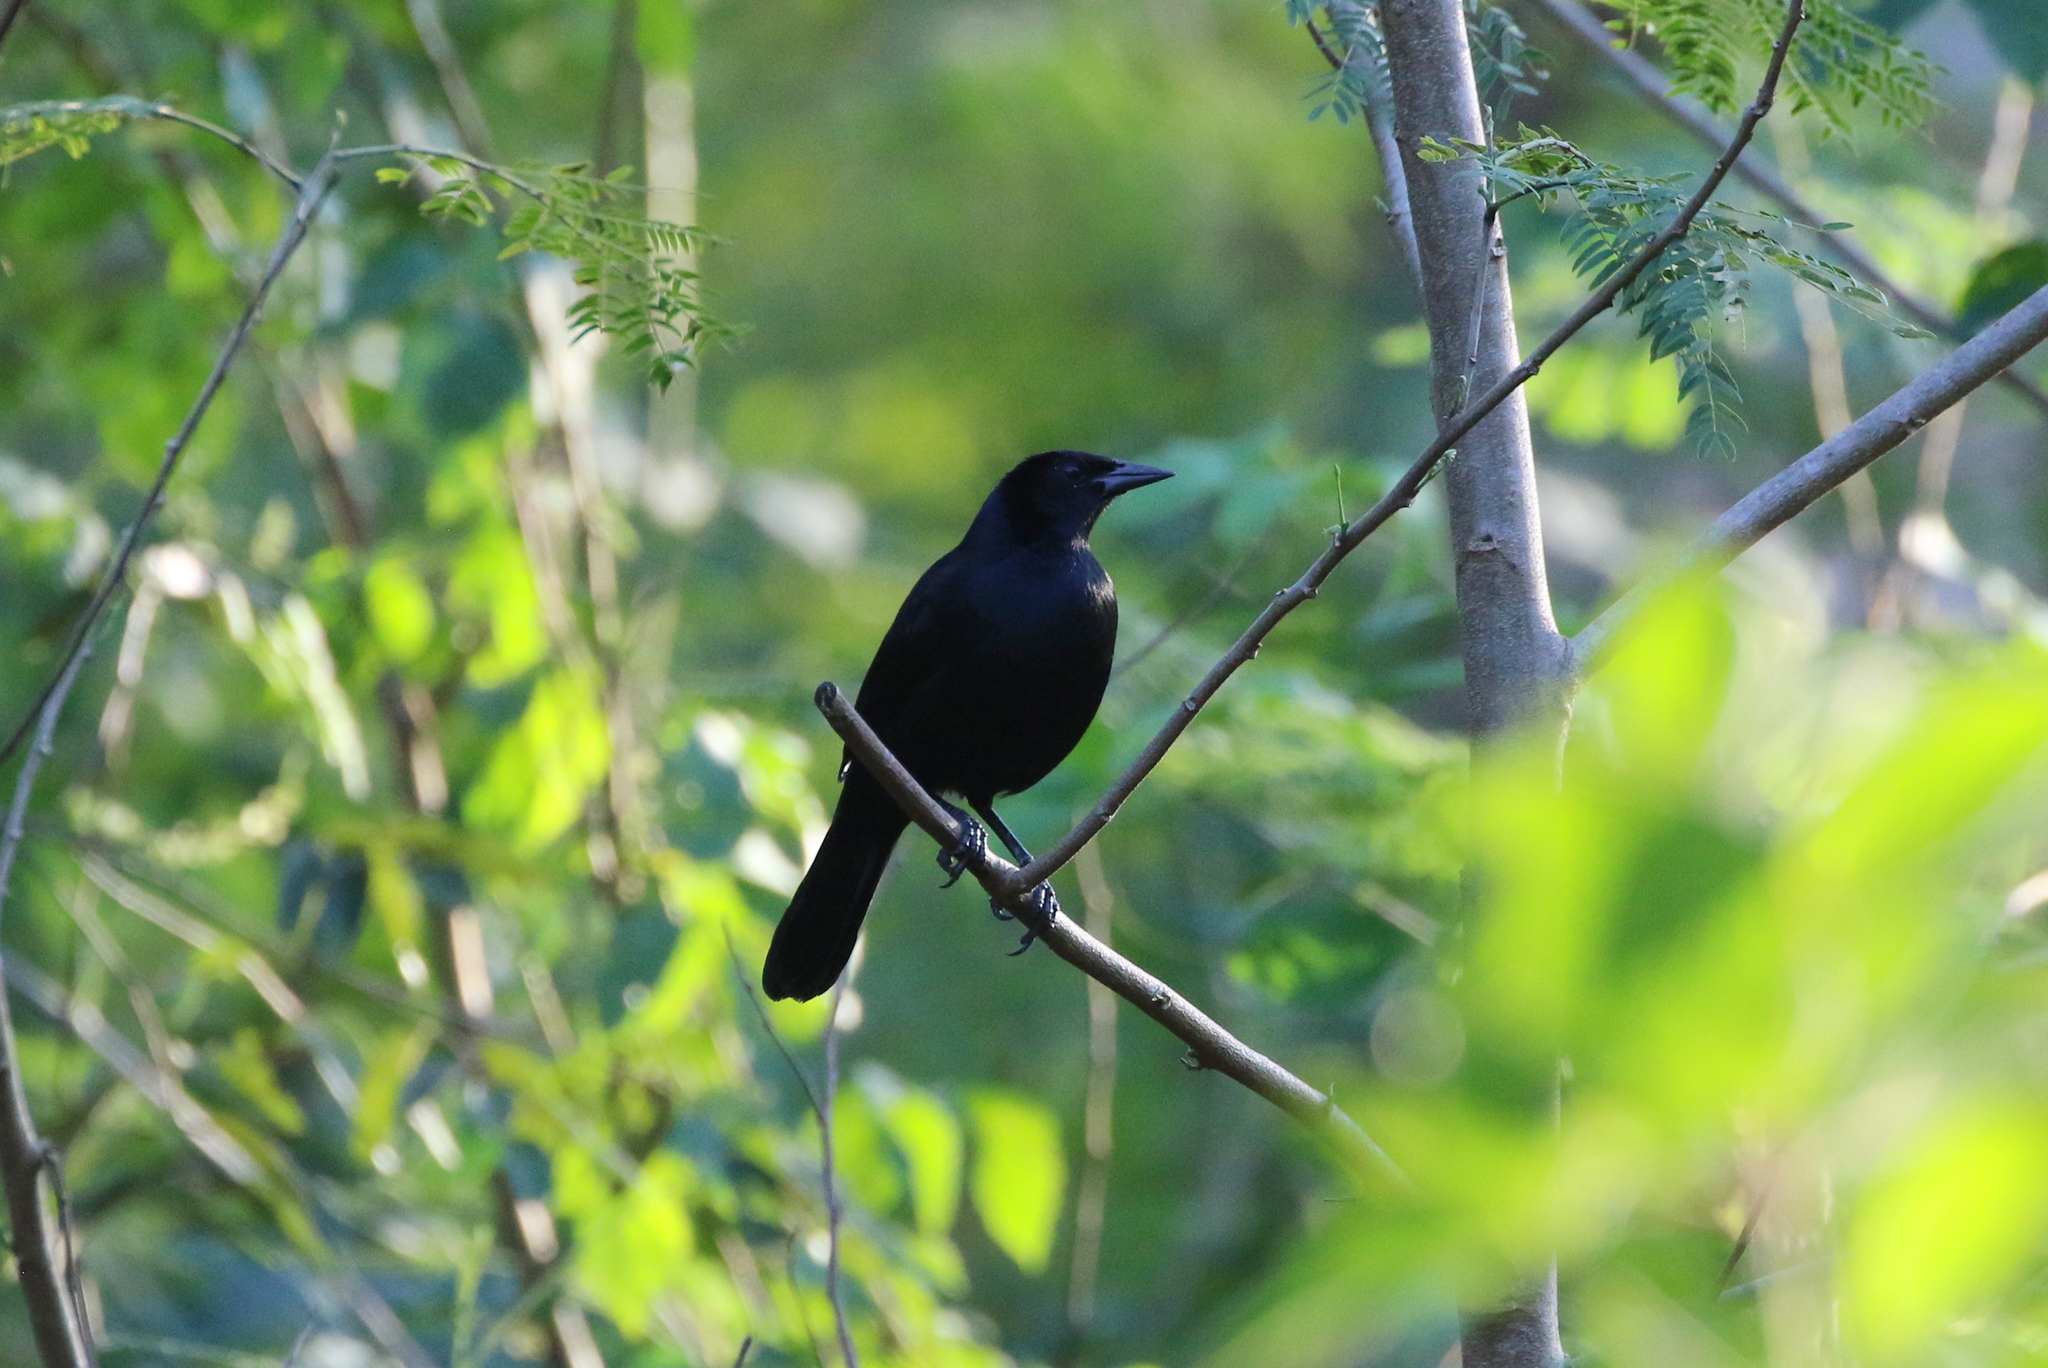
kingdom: Animalia
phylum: Chordata
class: Aves
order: Passeriformes
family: Icteridae
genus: Dives
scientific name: Dives dives
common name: Melodious blackbird
